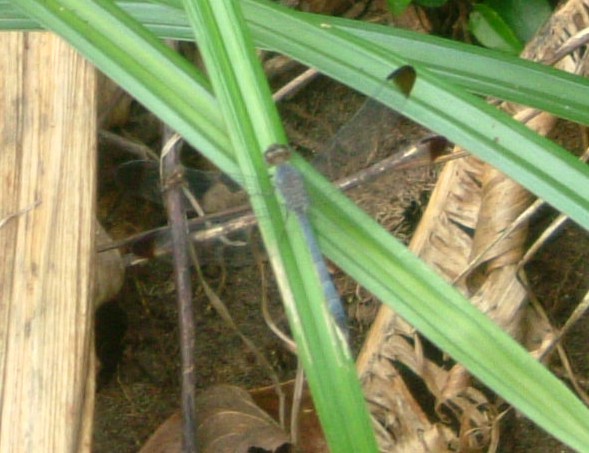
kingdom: Animalia
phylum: Arthropoda
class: Insecta
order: Odonata
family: Libellulidae
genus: Uracis
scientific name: Uracis imbuta
